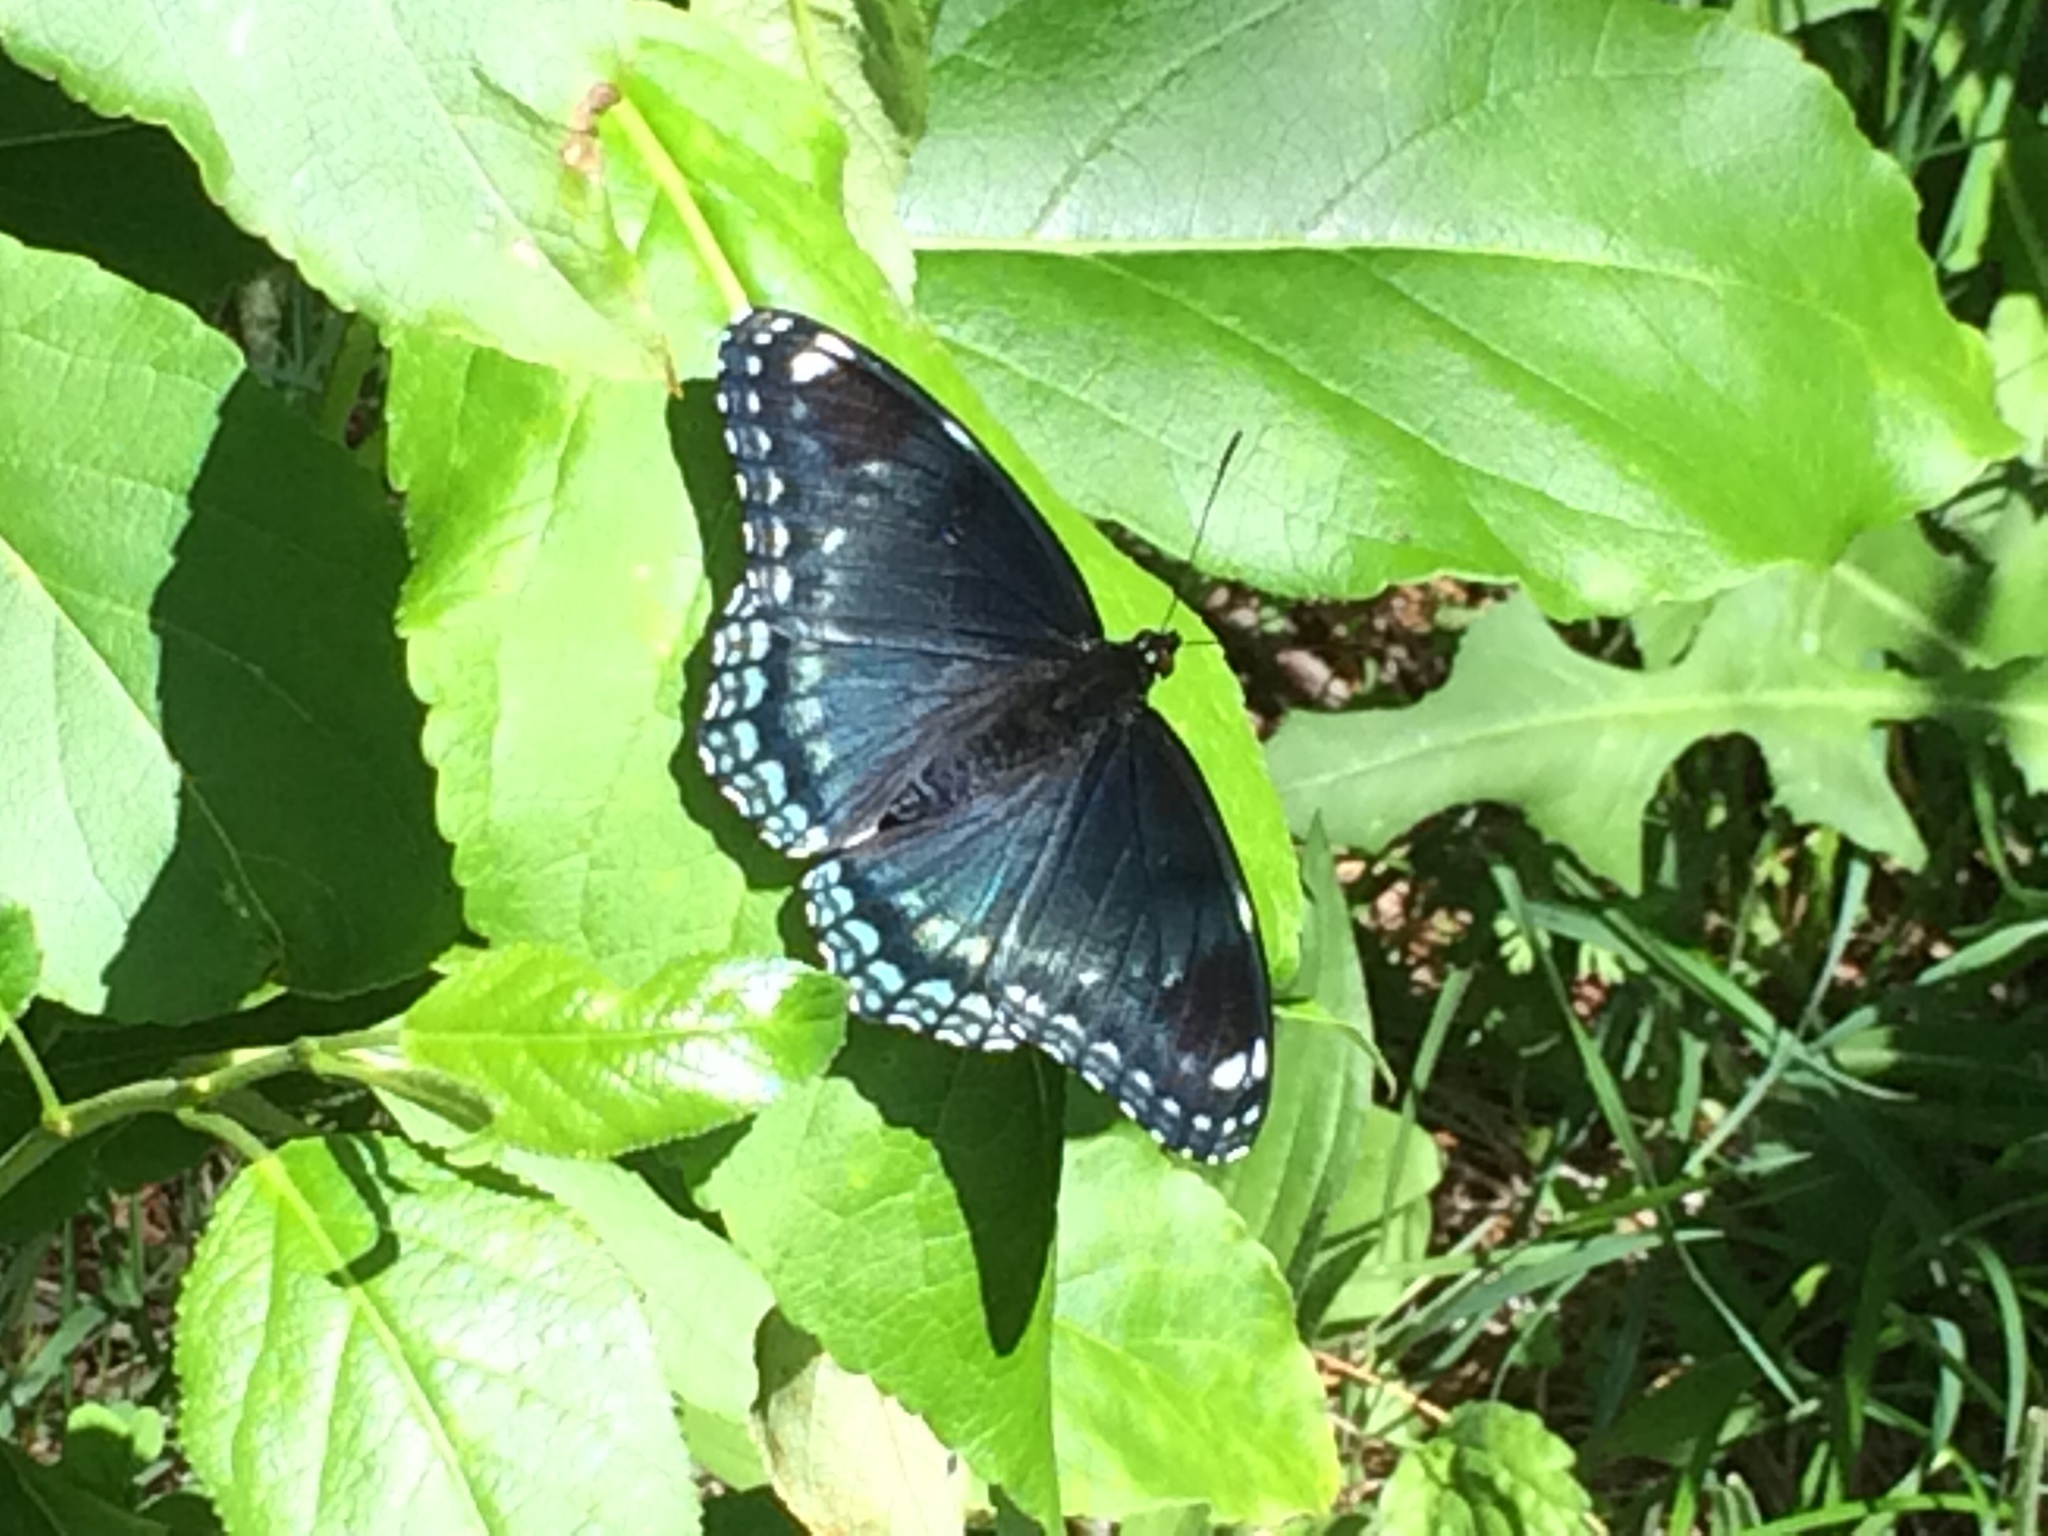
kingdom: Animalia
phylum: Arthropoda
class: Insecta
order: Lepidoptera
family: Nymphalidae
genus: Limenitis
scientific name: Limenitis arthemis
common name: Red-spotted admiral
